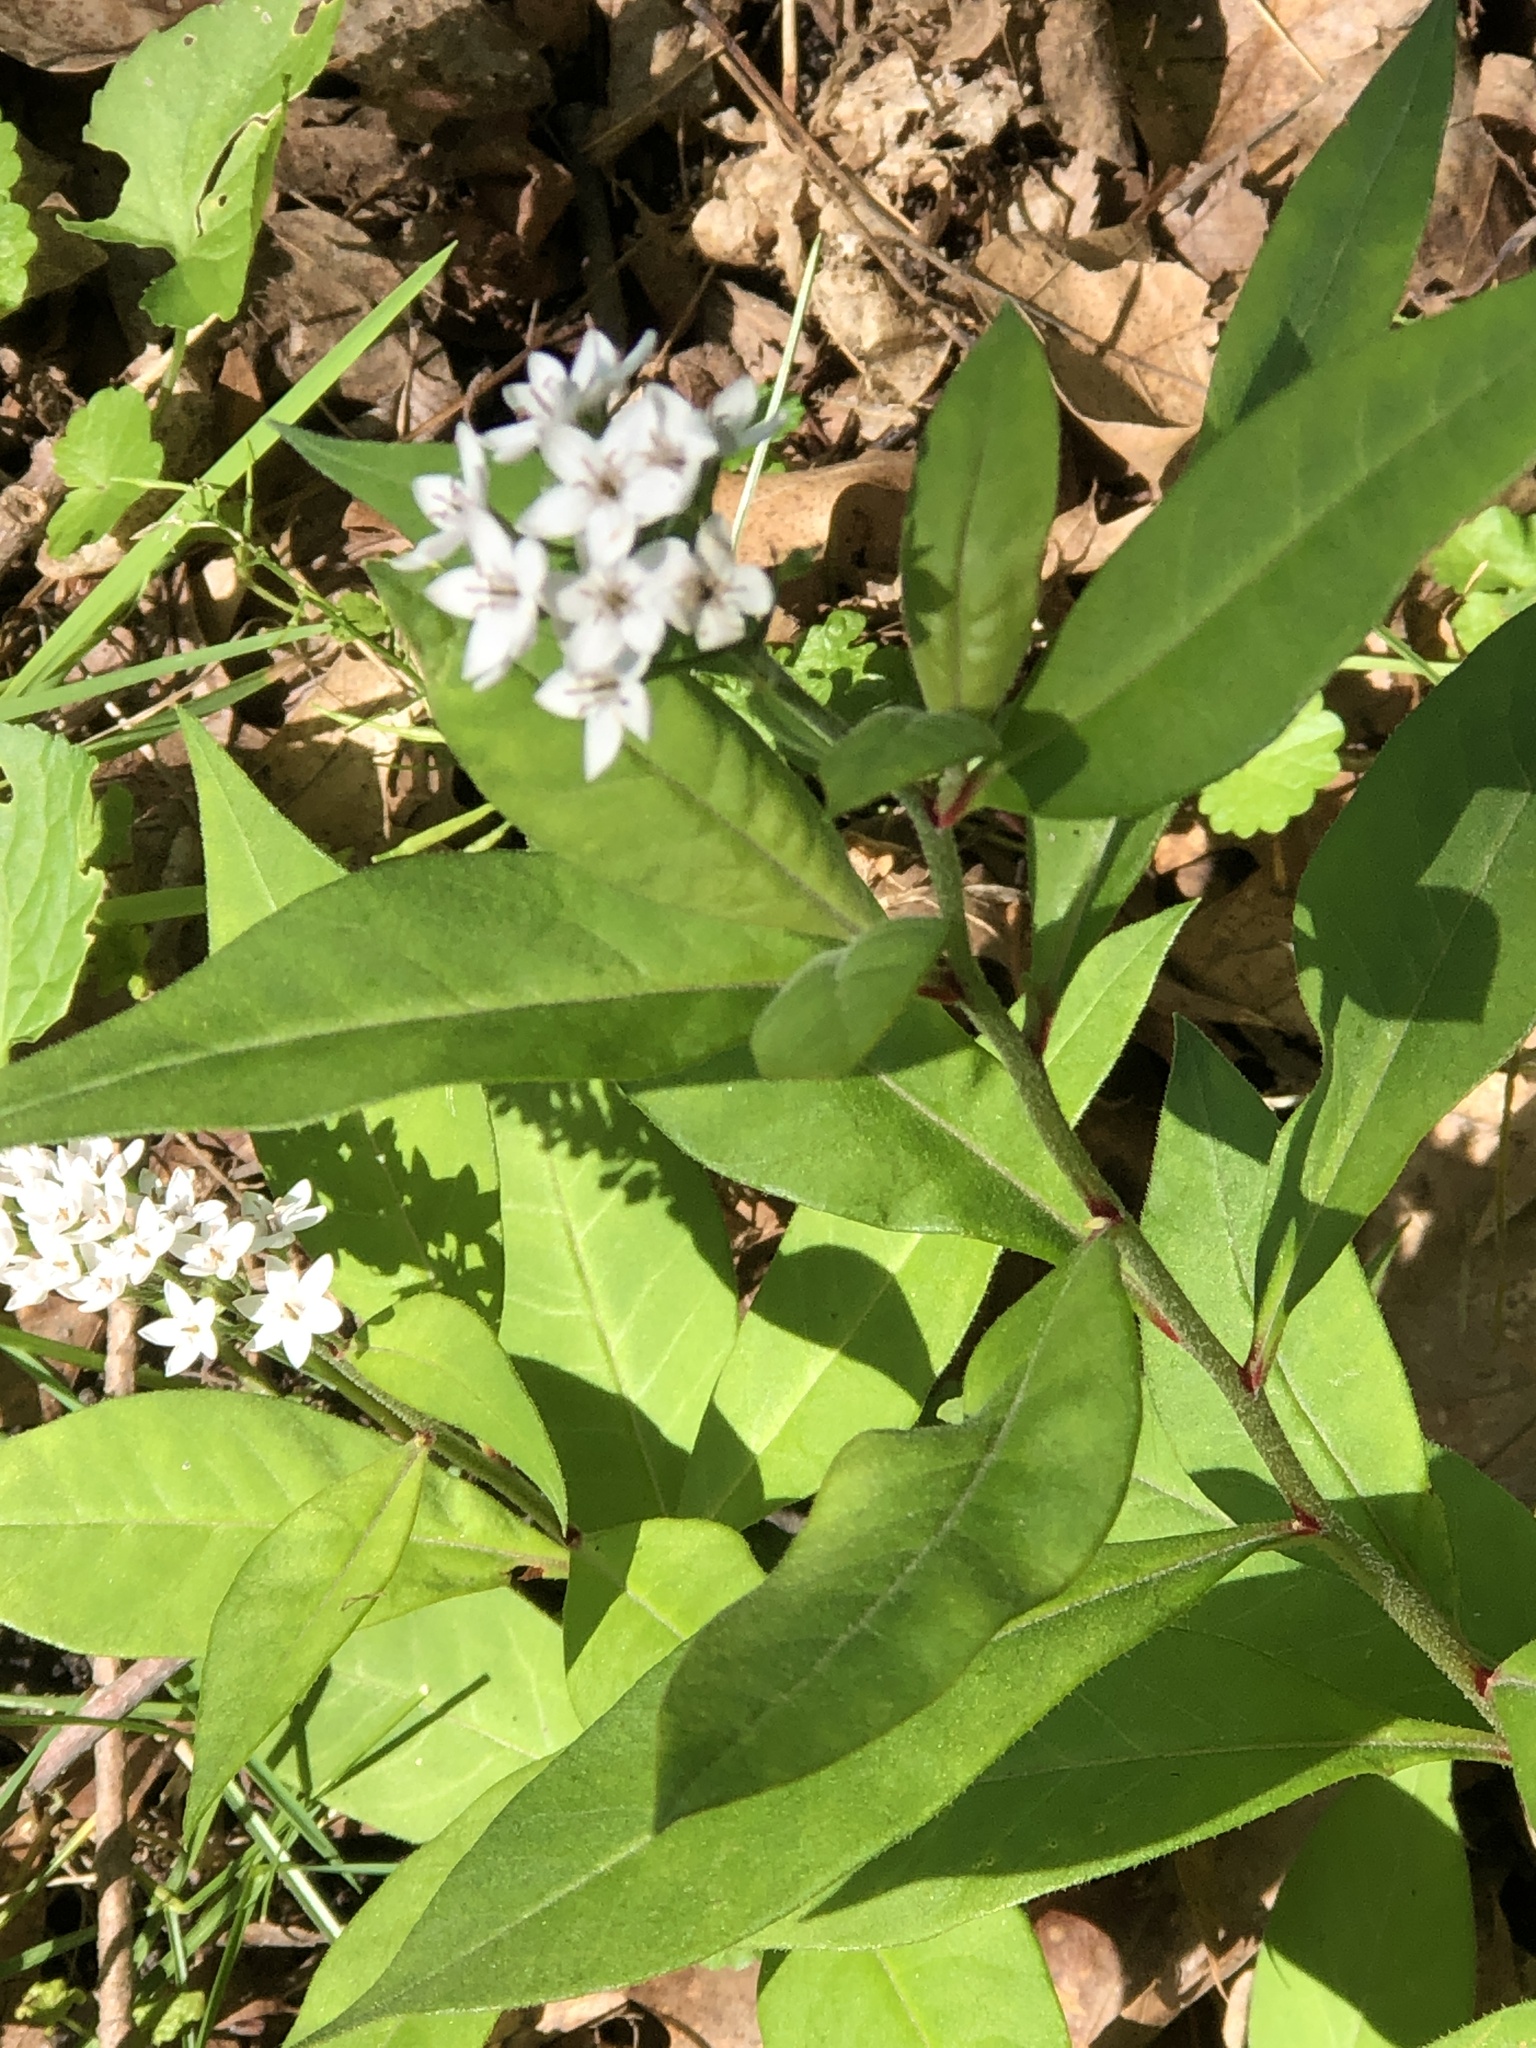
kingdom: Plantae
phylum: Tracheophyta
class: Magnoliopsida
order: Ericales
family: Primulaceae
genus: Lysimachia
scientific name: Lysimachia clethroides
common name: Gooseneck loosestrife
